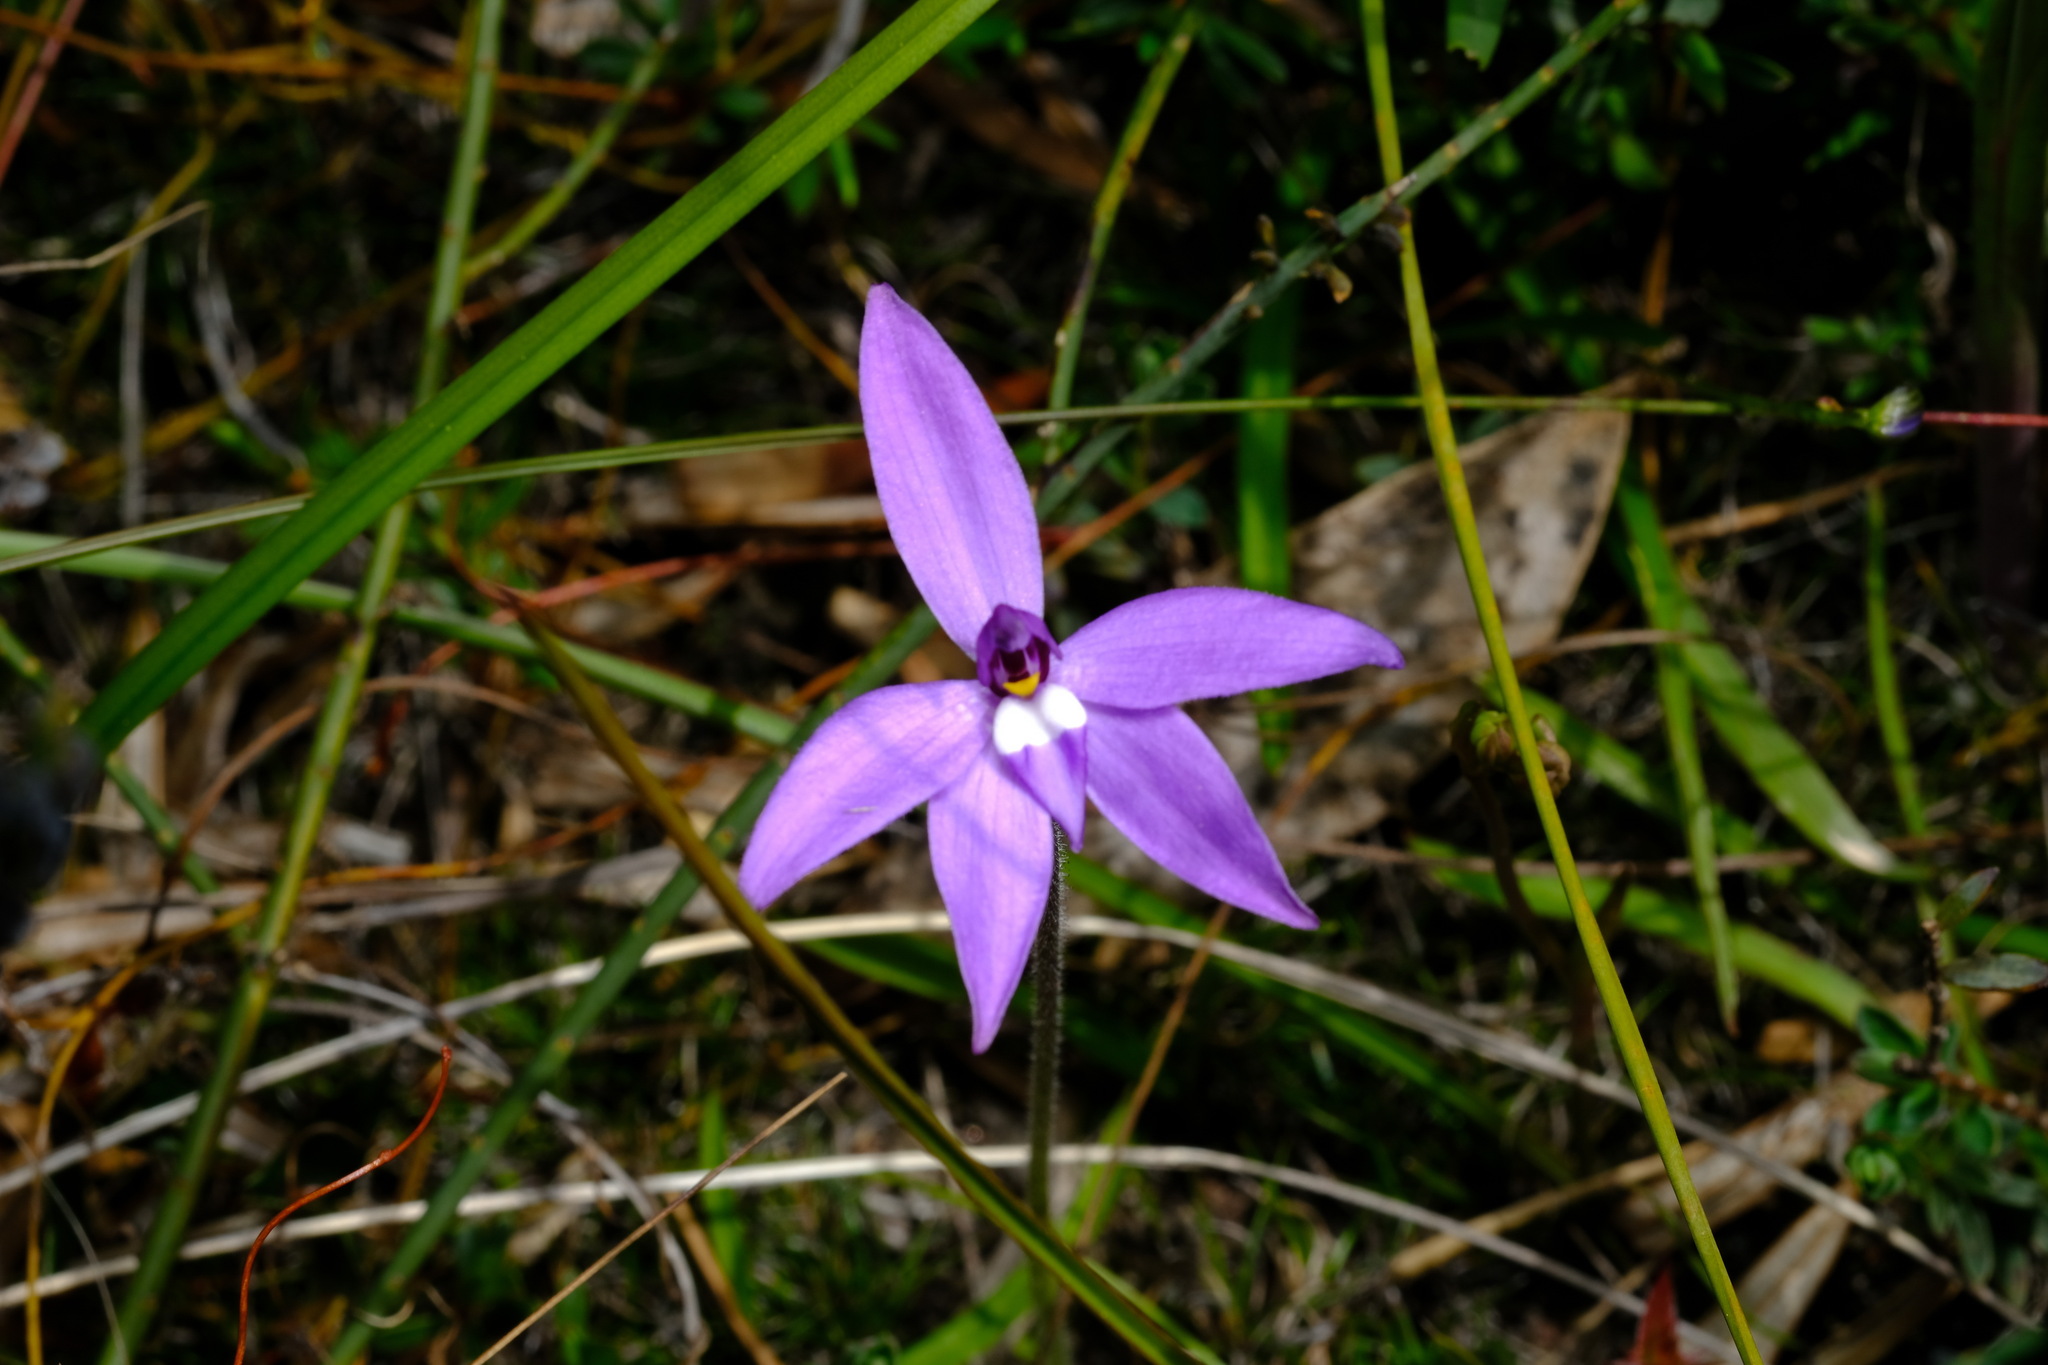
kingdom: Plantae
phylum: Tracheophyta
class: Liliopsida
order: Asparagales
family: Orchidaceae
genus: Caladenia
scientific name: Caladenia major
